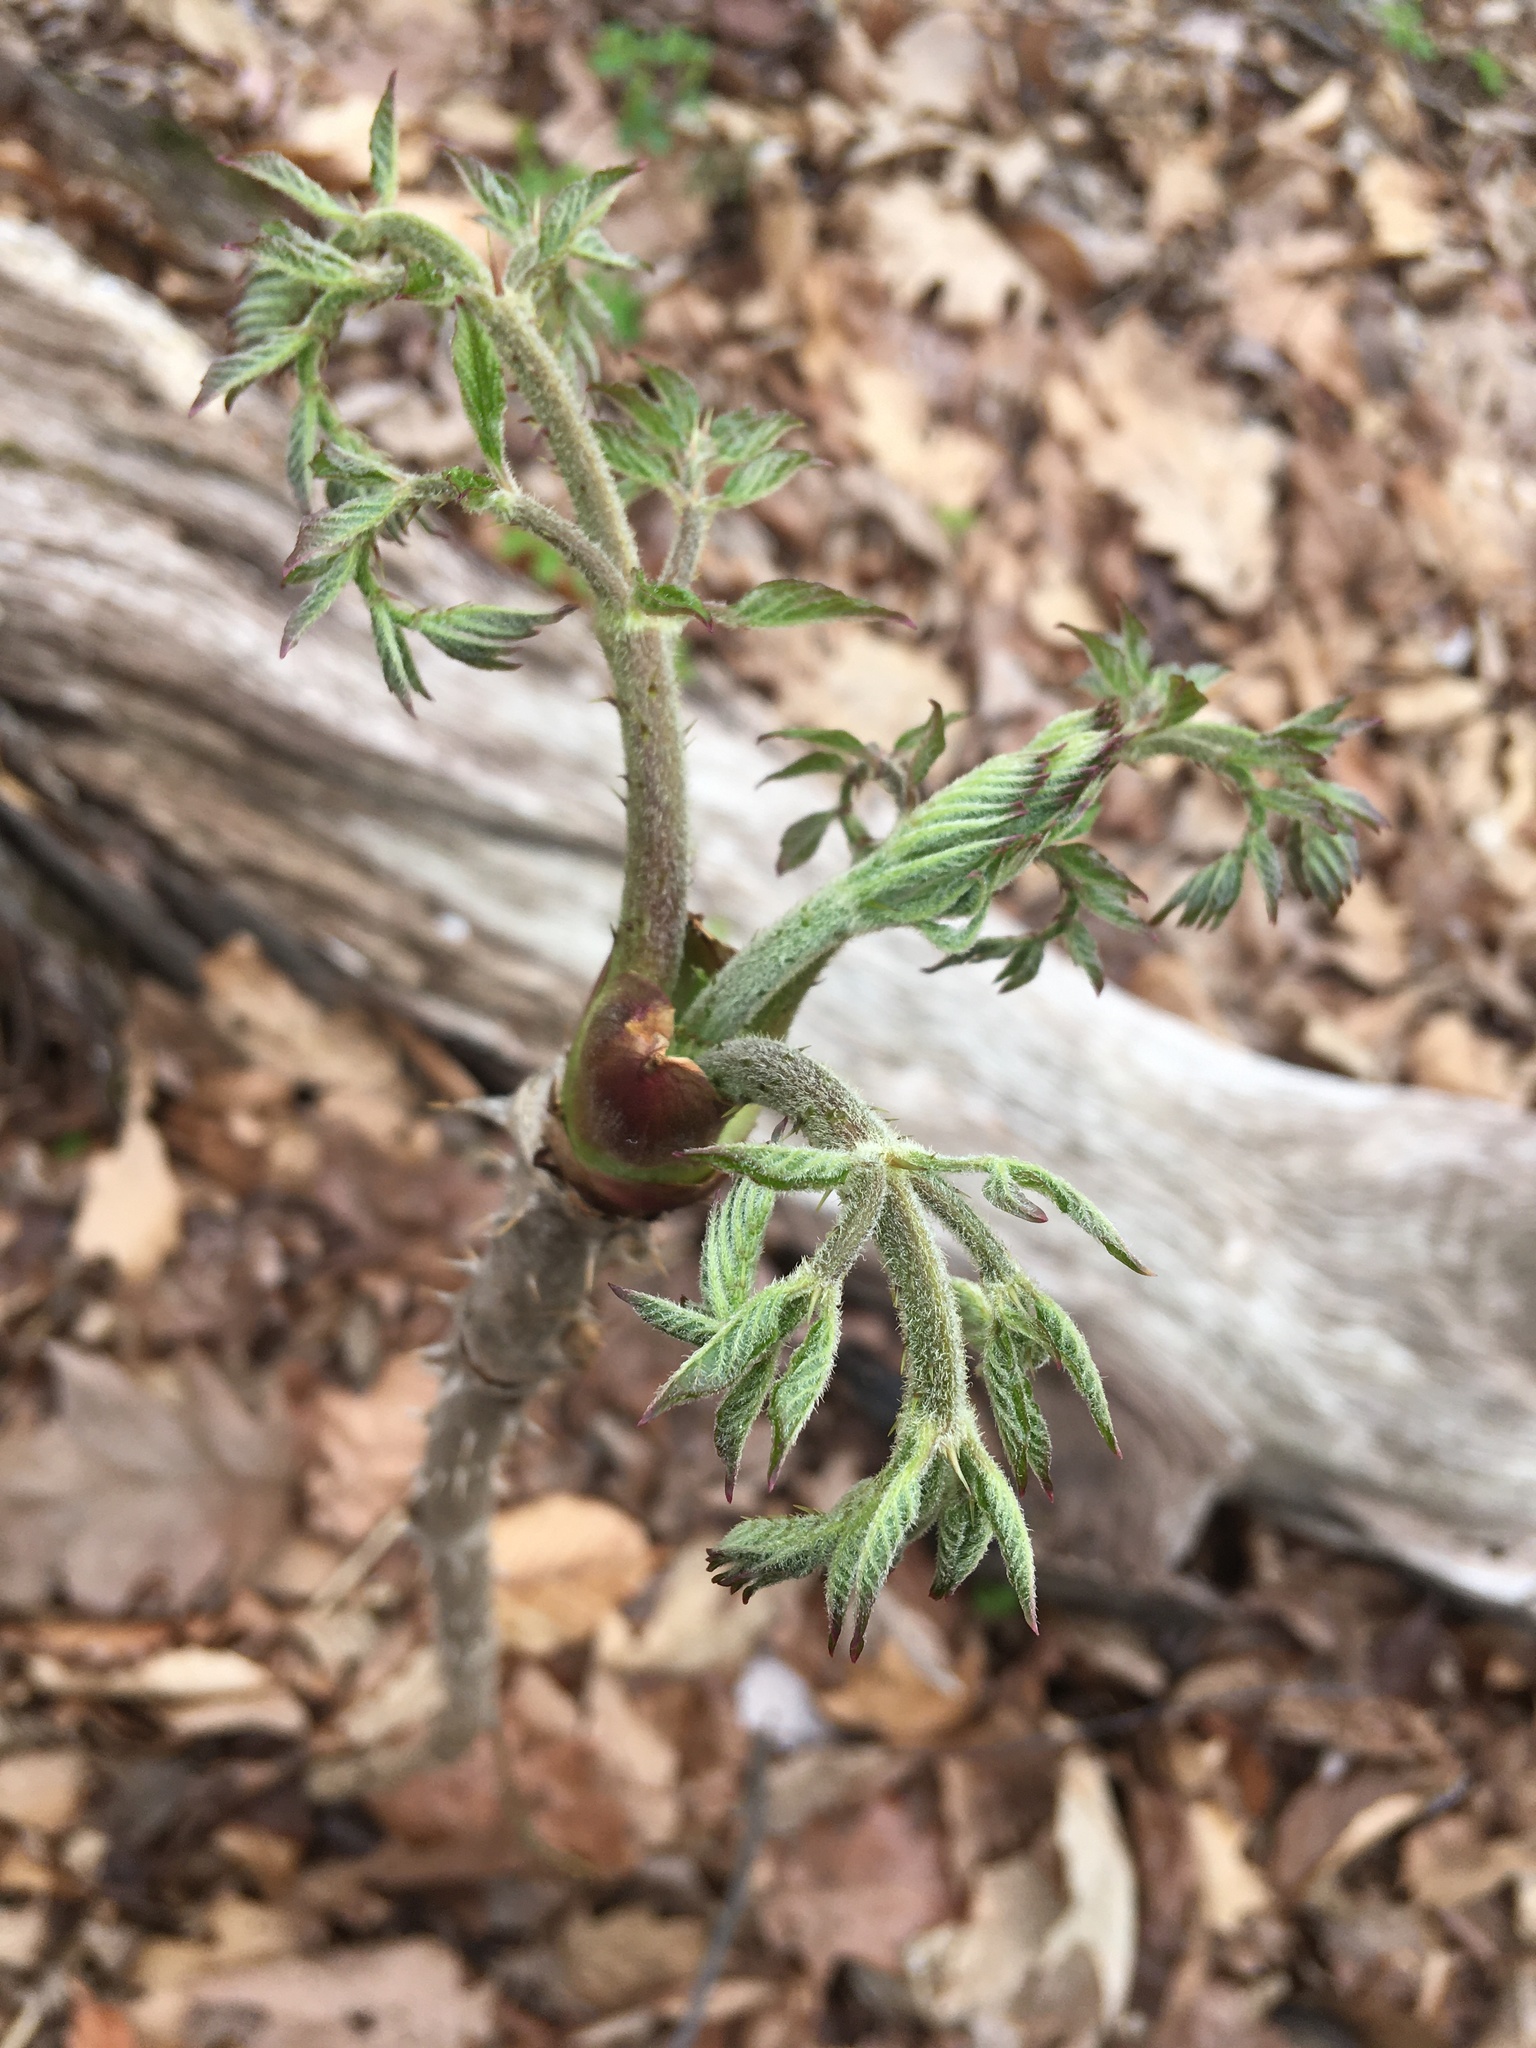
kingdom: Plantae
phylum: Tracheophyta
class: Magnoliopsida
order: Apiales
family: Araliaceae
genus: Aralia
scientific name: Aralia elata
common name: Japanese angelica-tree
